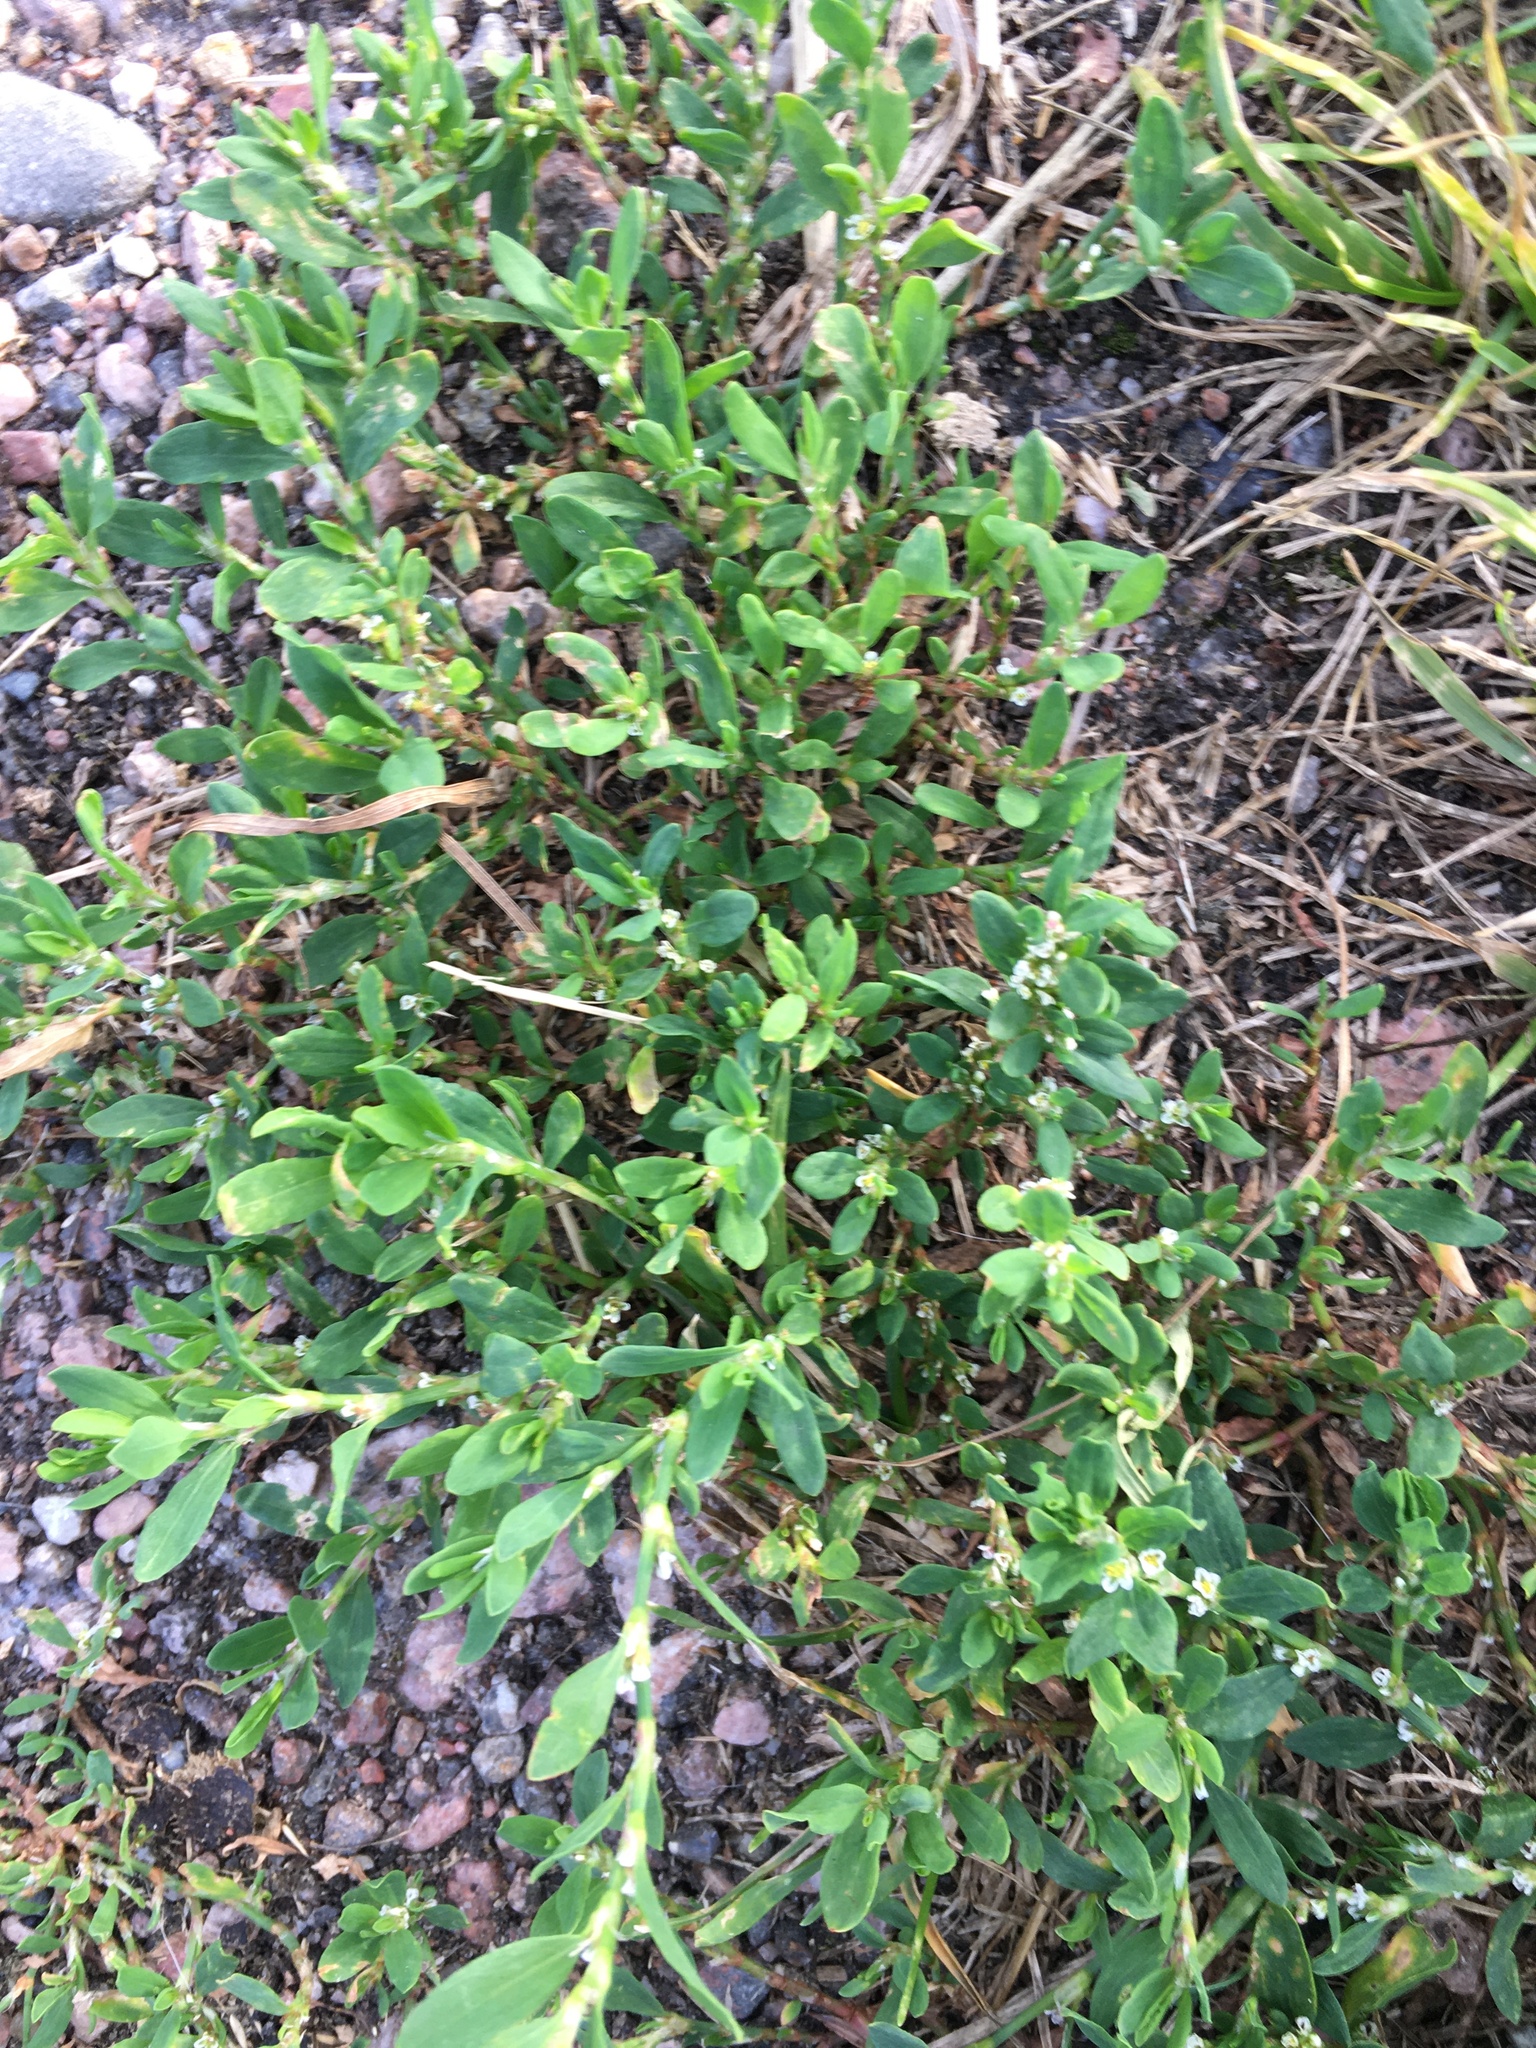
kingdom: Plantae
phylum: Tracheophyta
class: Magnoliopsida
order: Caryophyllales
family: Polygonaceae
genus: Polygonum
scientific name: Polygonum
